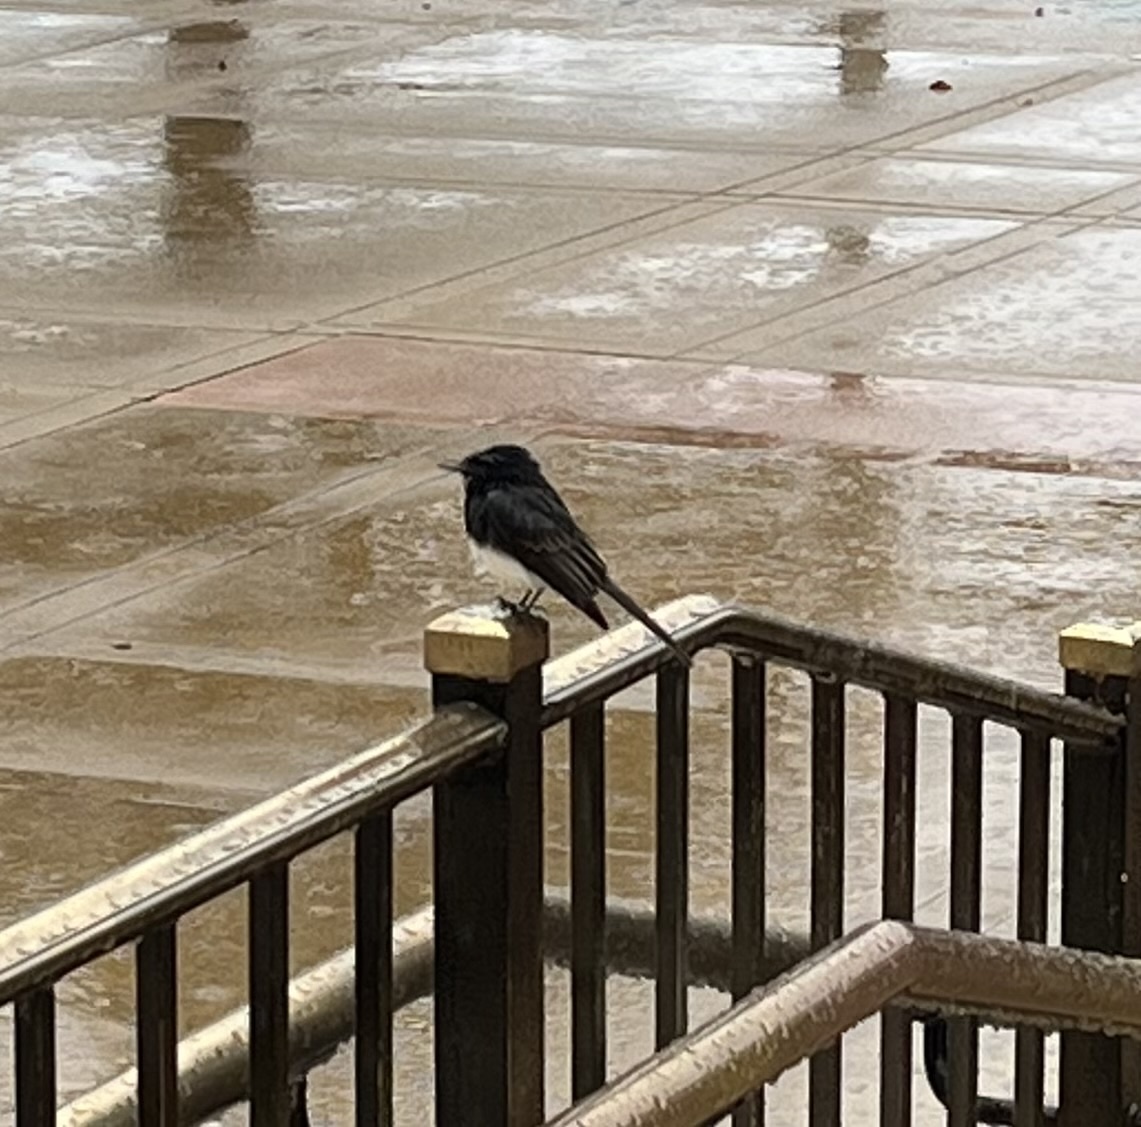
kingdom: Animalia
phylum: Chordata
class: Aves
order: Passeriformes
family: Tyrannidae
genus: Sayornis
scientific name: Sayornis nigricans
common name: Black phoebe
